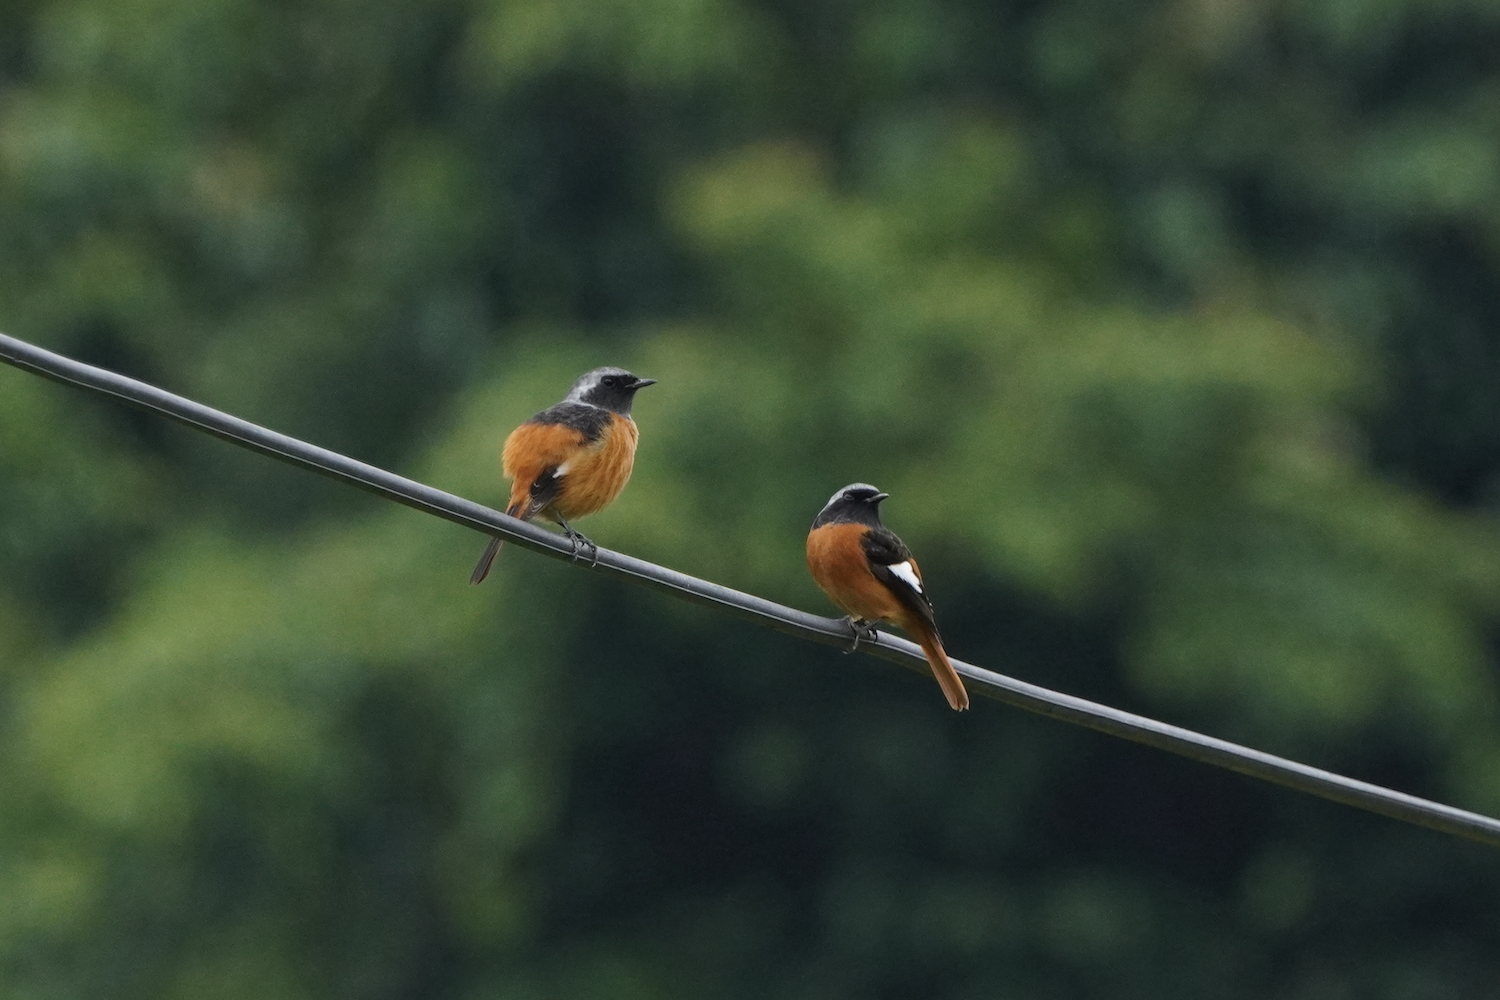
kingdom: Animalia
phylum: Chordata
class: Aves
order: Passeriformes
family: Muscicapidae
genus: Phoenicurus
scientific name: Phoenicurus auroreus
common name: Daurian redstart
